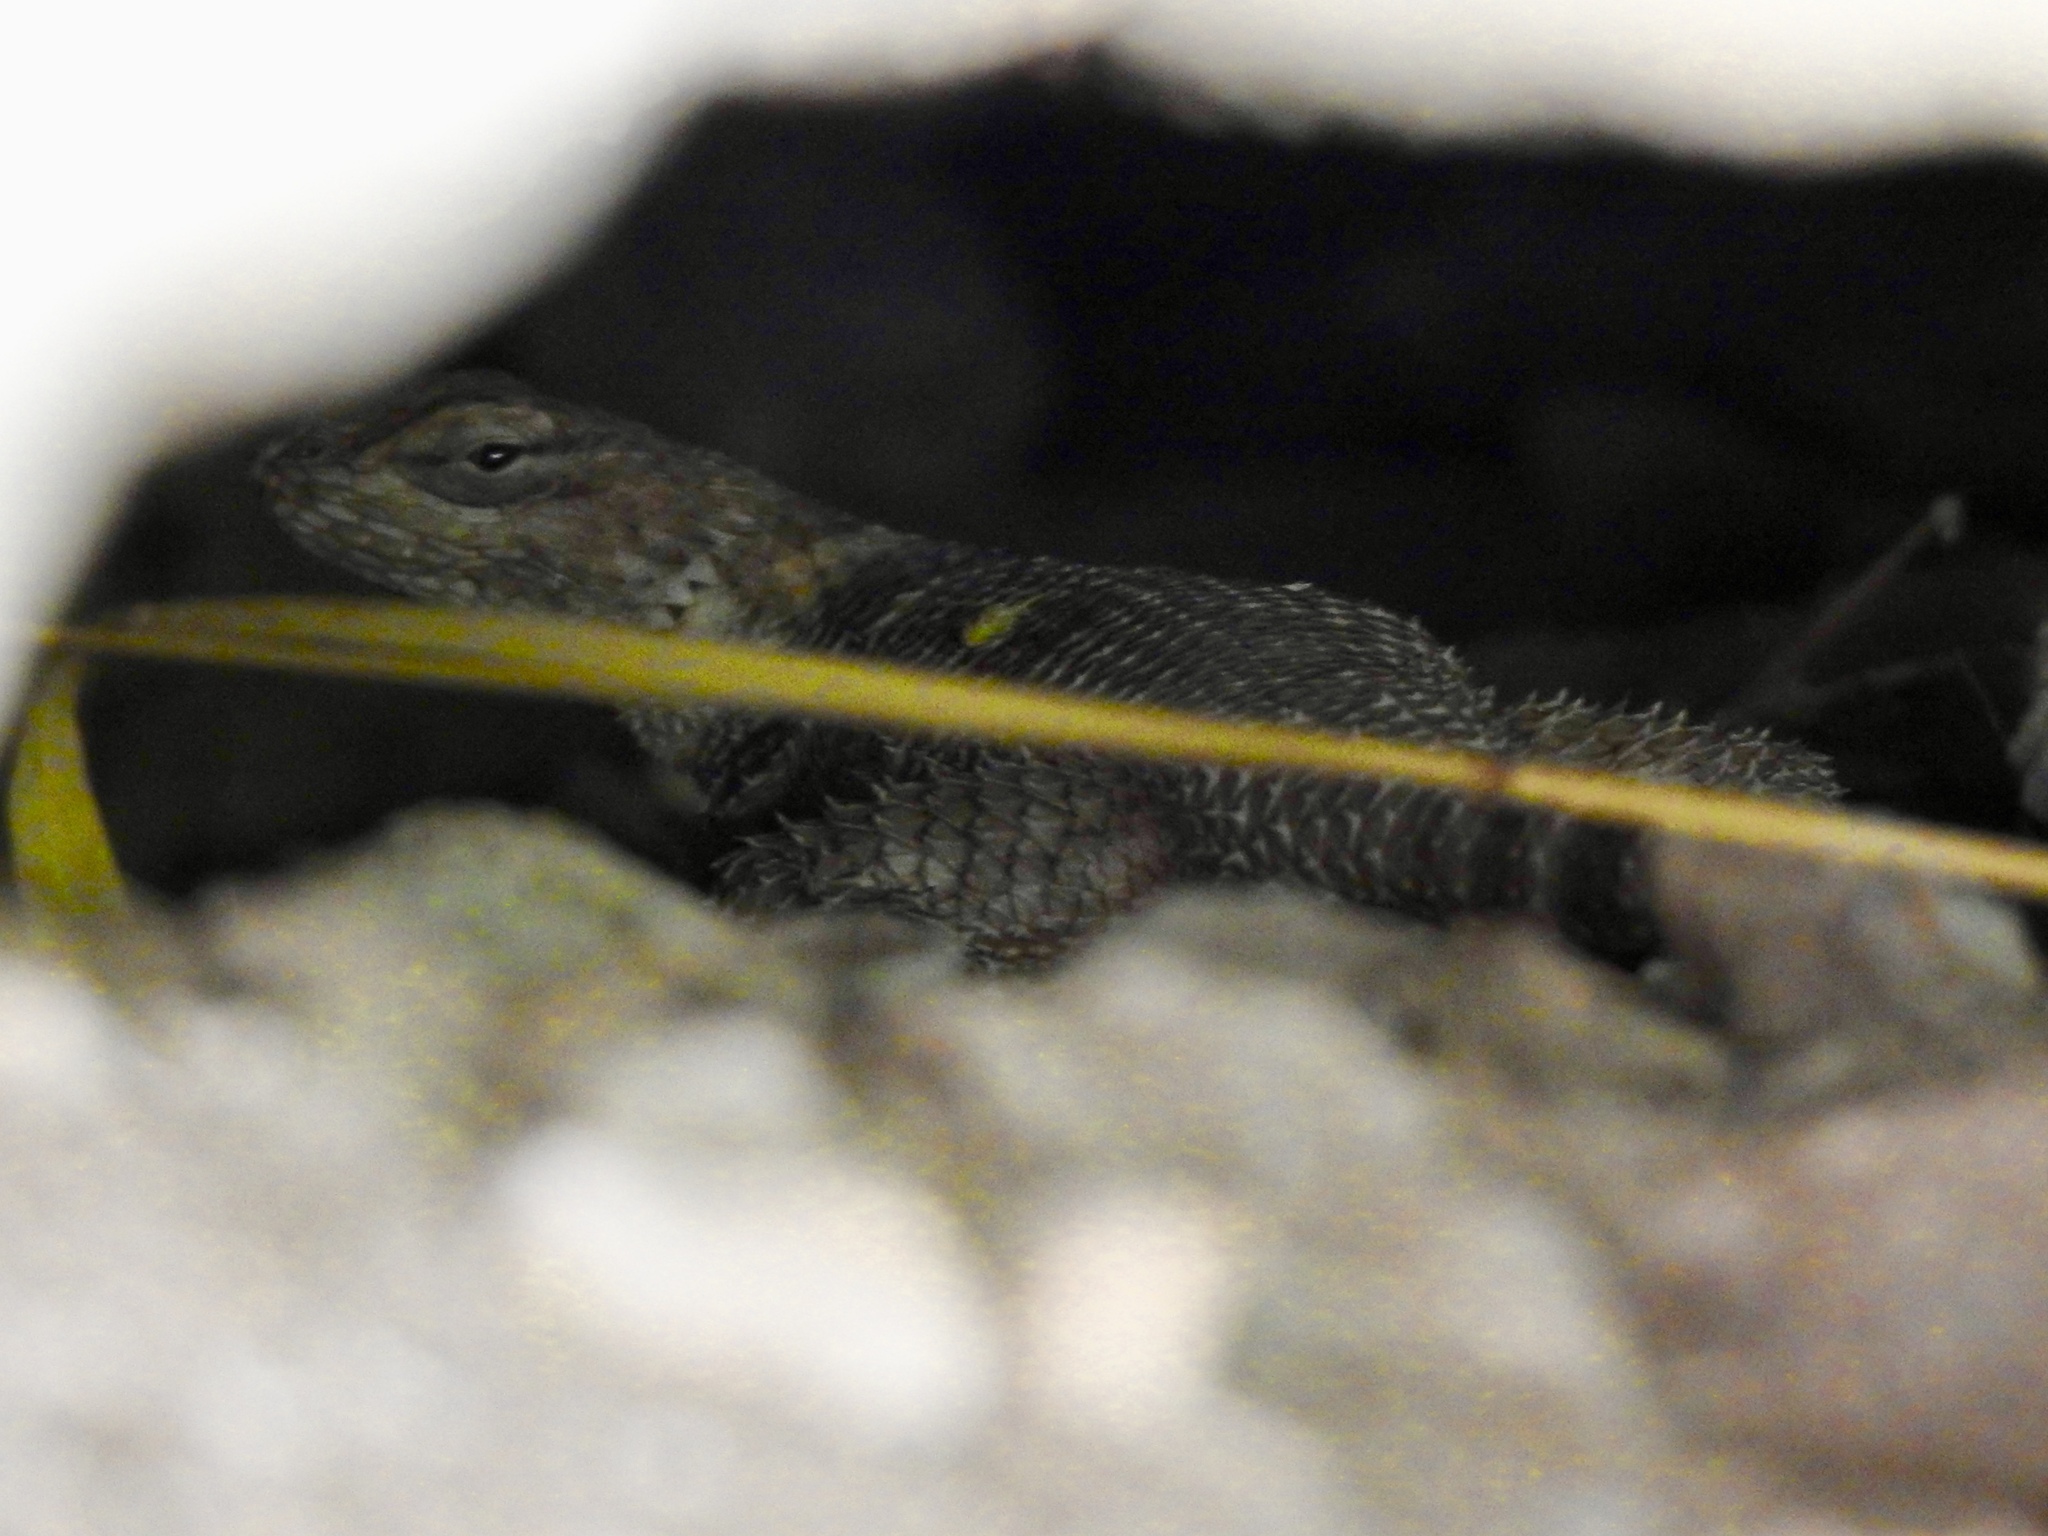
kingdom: Animalia
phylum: Chordata
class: Squamata
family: Phrynosomatidae
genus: Sceloporus
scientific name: Sceloporus poinsettii
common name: Crevice spiny lizard
